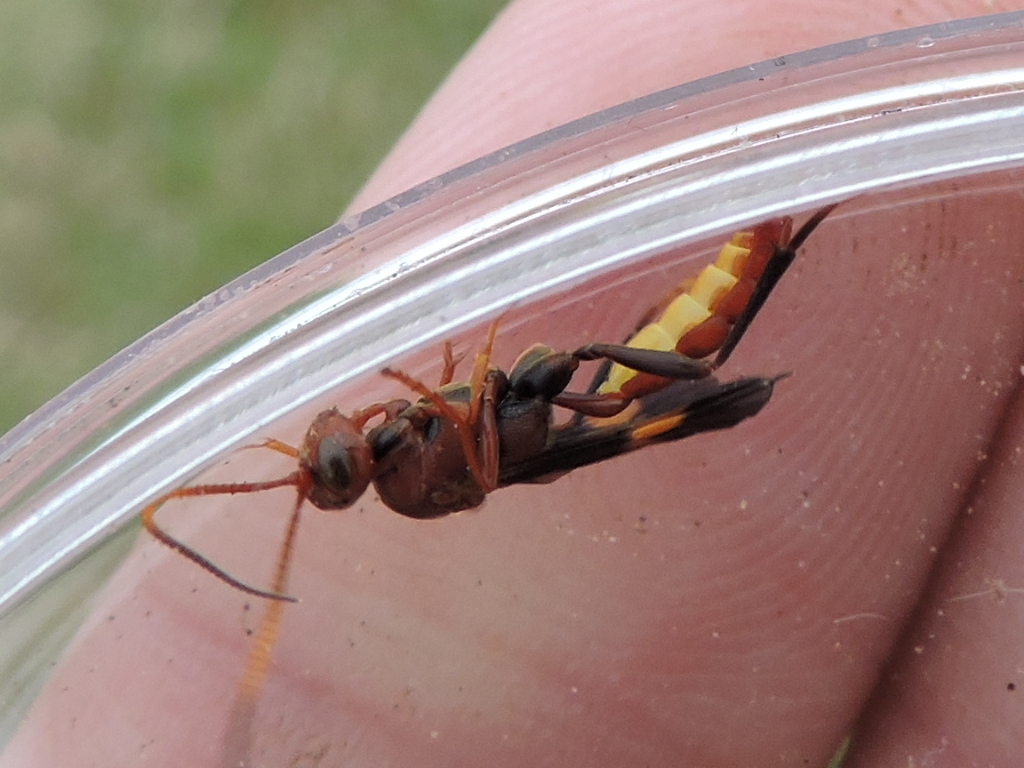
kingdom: Animalia
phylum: Arthropoda
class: Insecta
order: Hymenoptera
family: Ichneumonidae
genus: Trogomorpha
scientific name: Trogomorpha arrogans
